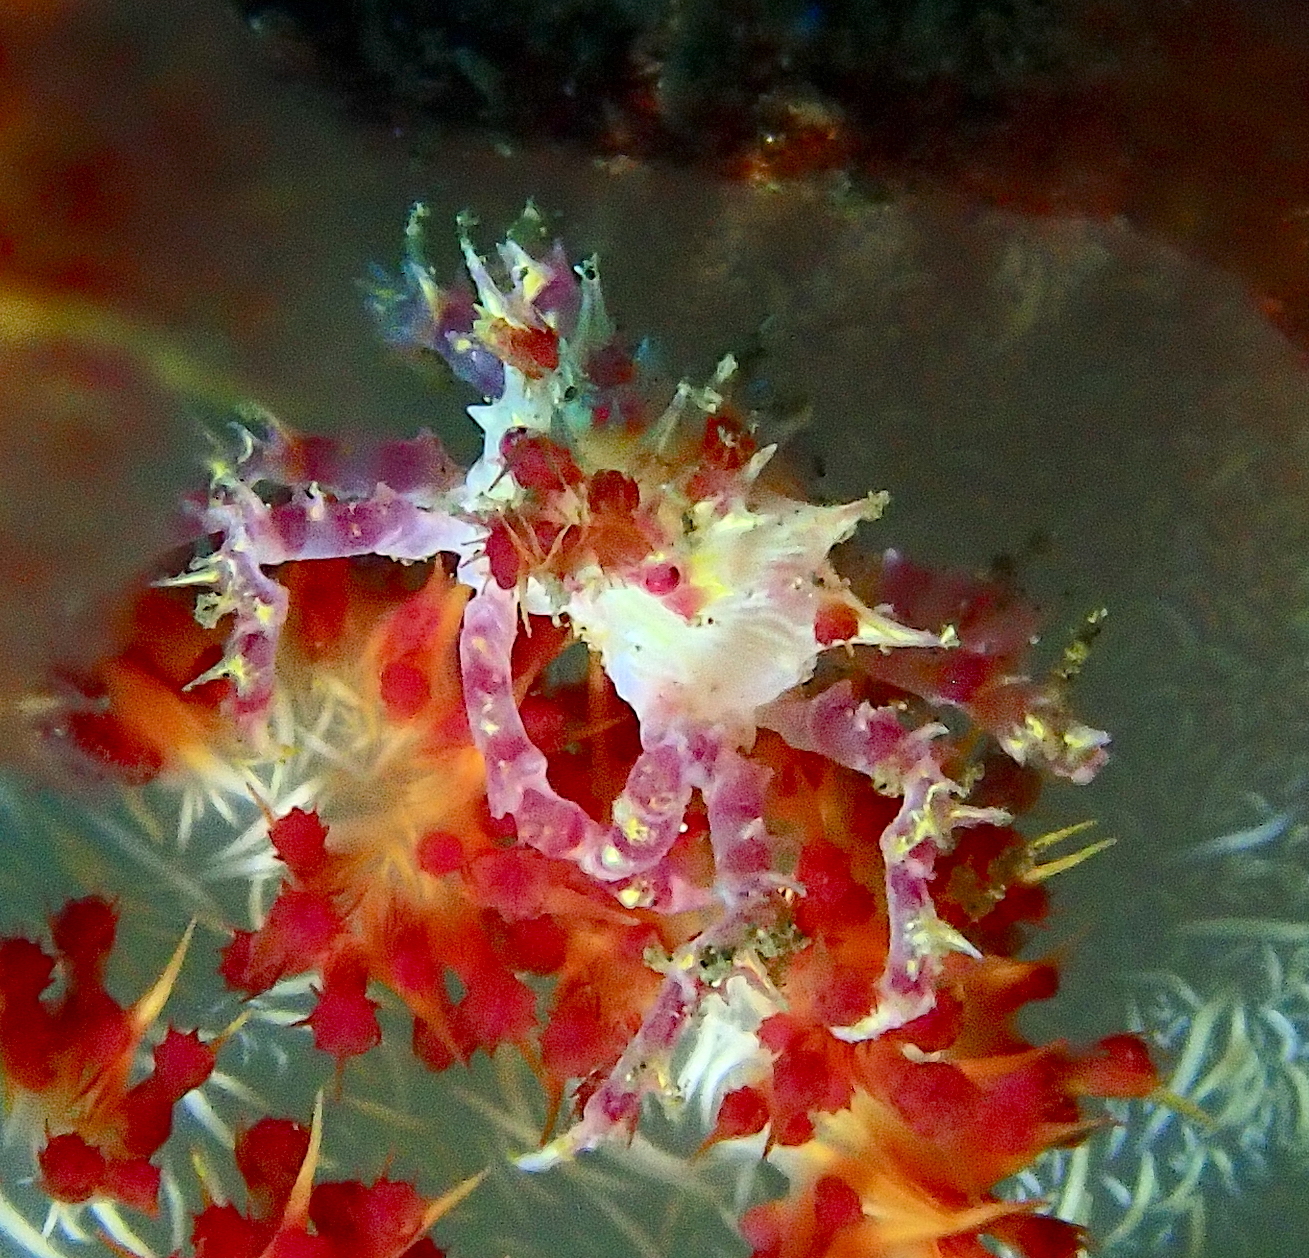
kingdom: Animalia
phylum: Arthropoda
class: Malacostraca
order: Decapoda
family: Epialtidae
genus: Hoplophrys
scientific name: Hoplophrys oatesii
